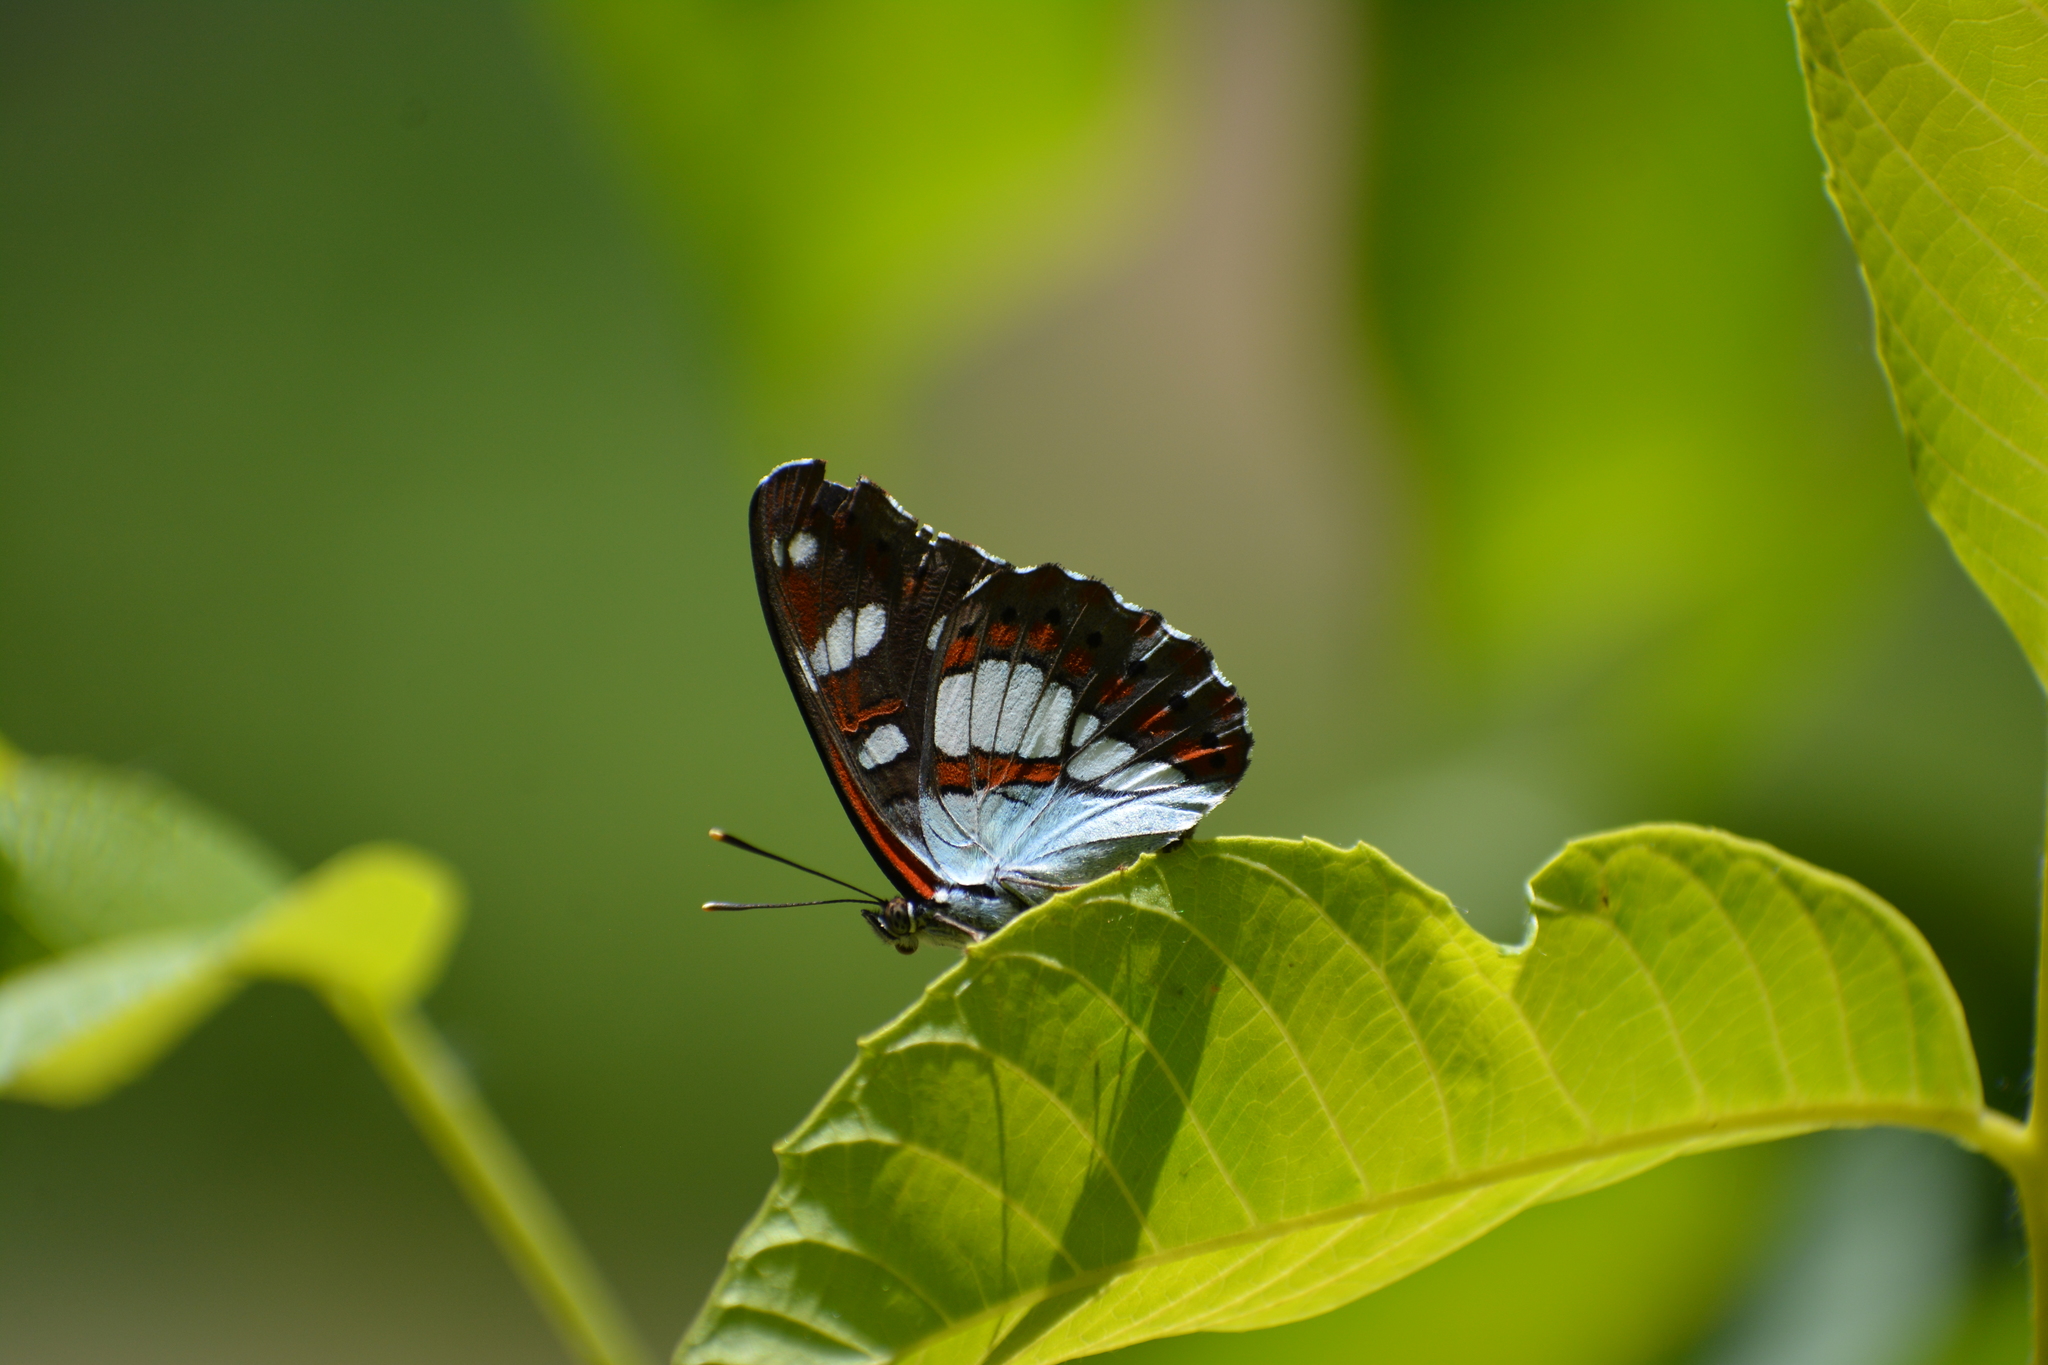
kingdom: Animalia
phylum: Arthropoda
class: Insecta
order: Lepidoptera
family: Nymphalidae
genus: Limenitis
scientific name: Limenitis reducta
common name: Southern white admiral
